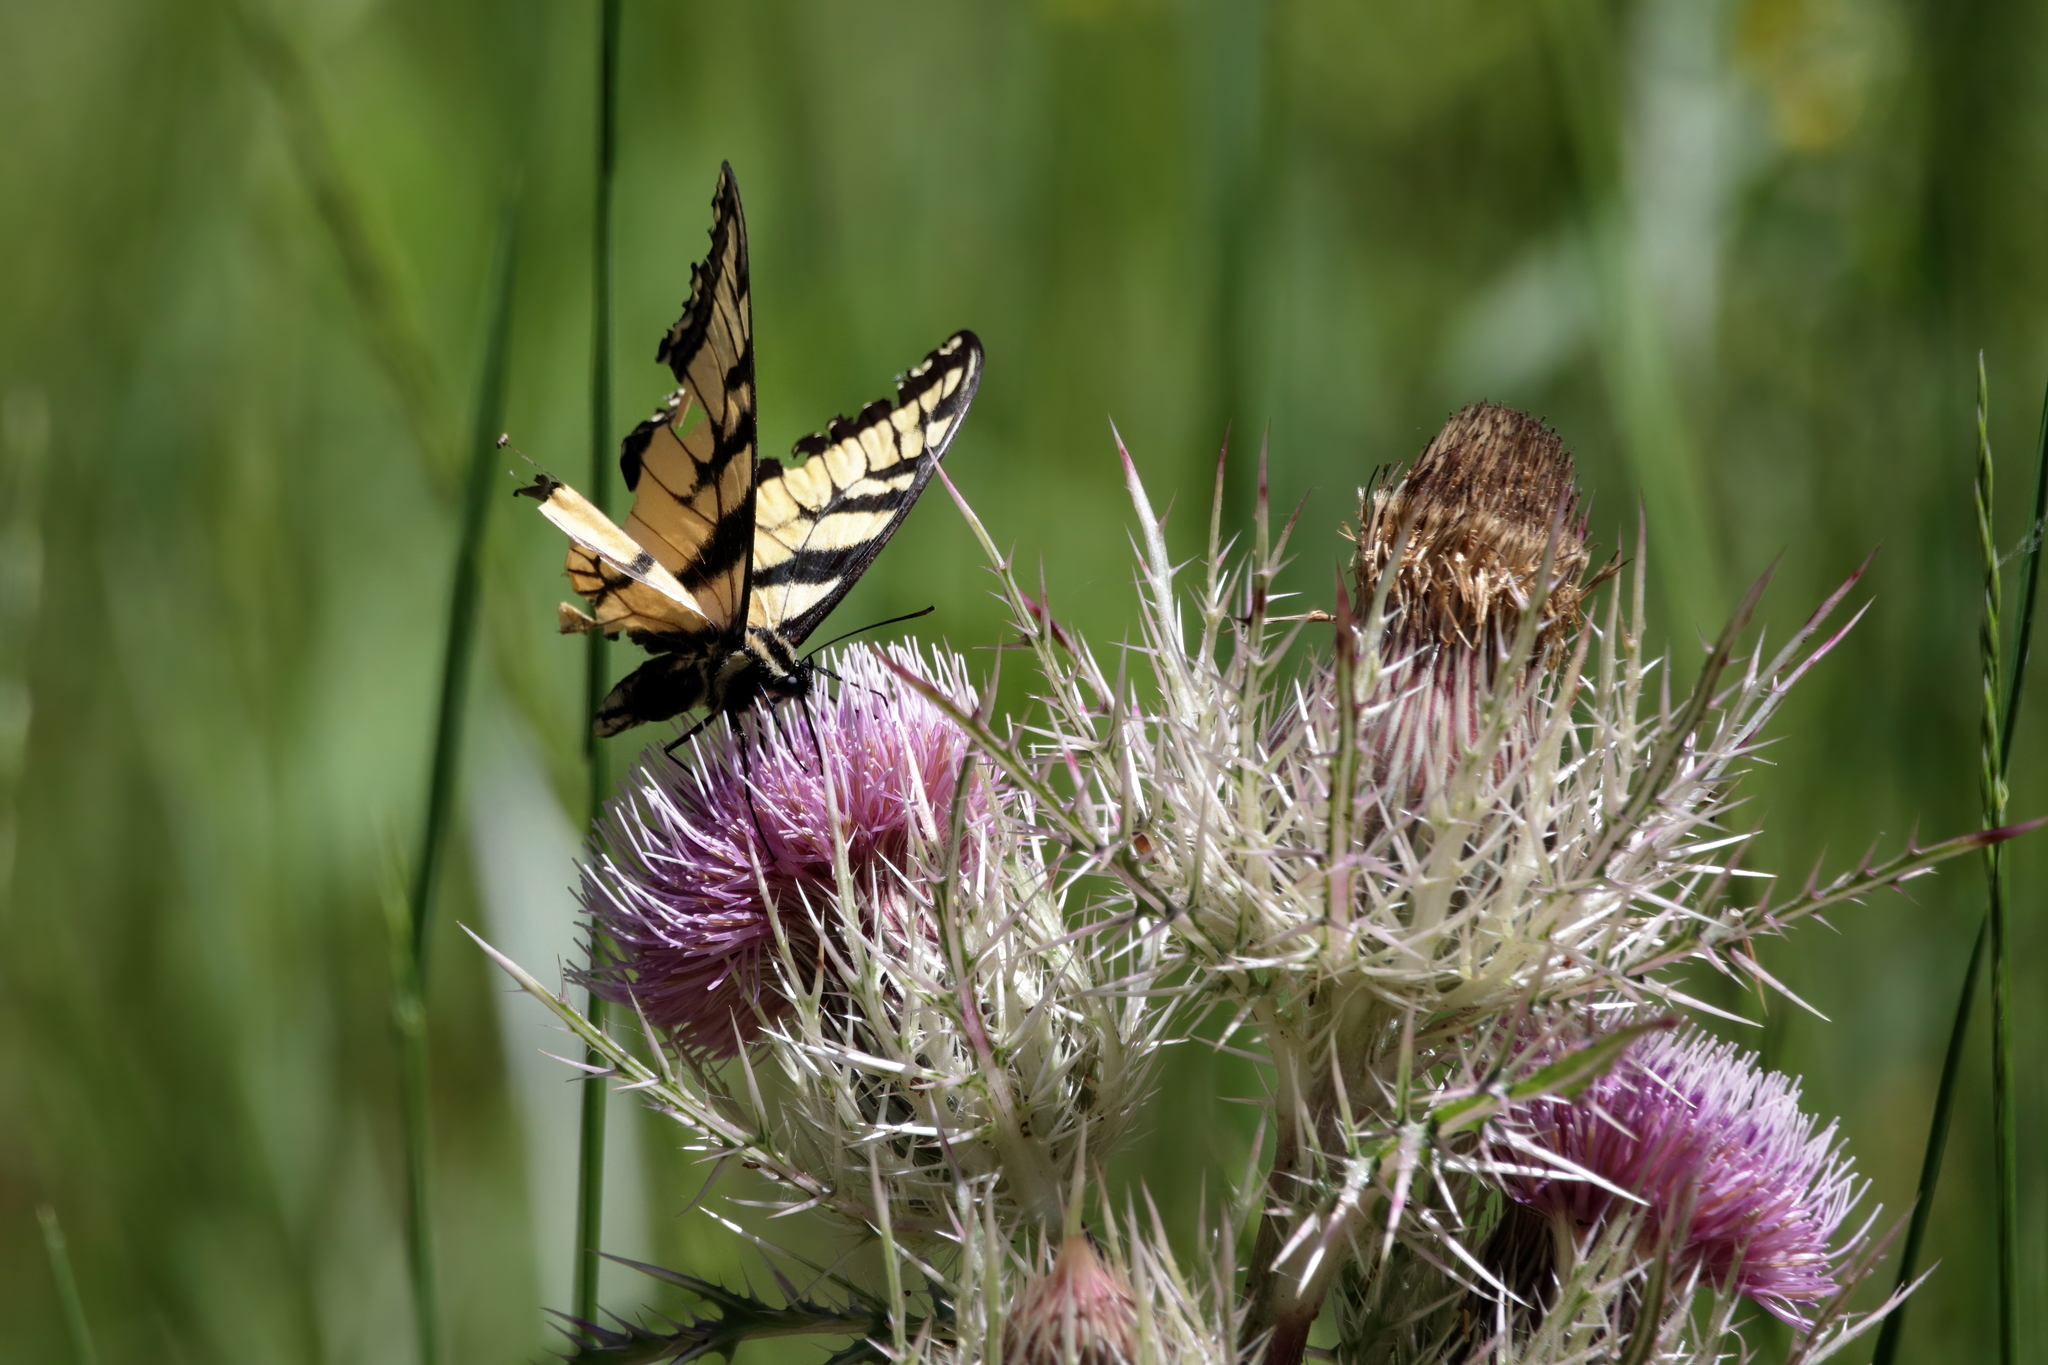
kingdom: Animalia
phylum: Arthropoda
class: Insecta
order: Lepidoptera
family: Papilionidae
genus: Papilio
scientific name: Papilio glaucus
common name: Tiger swallowtail
